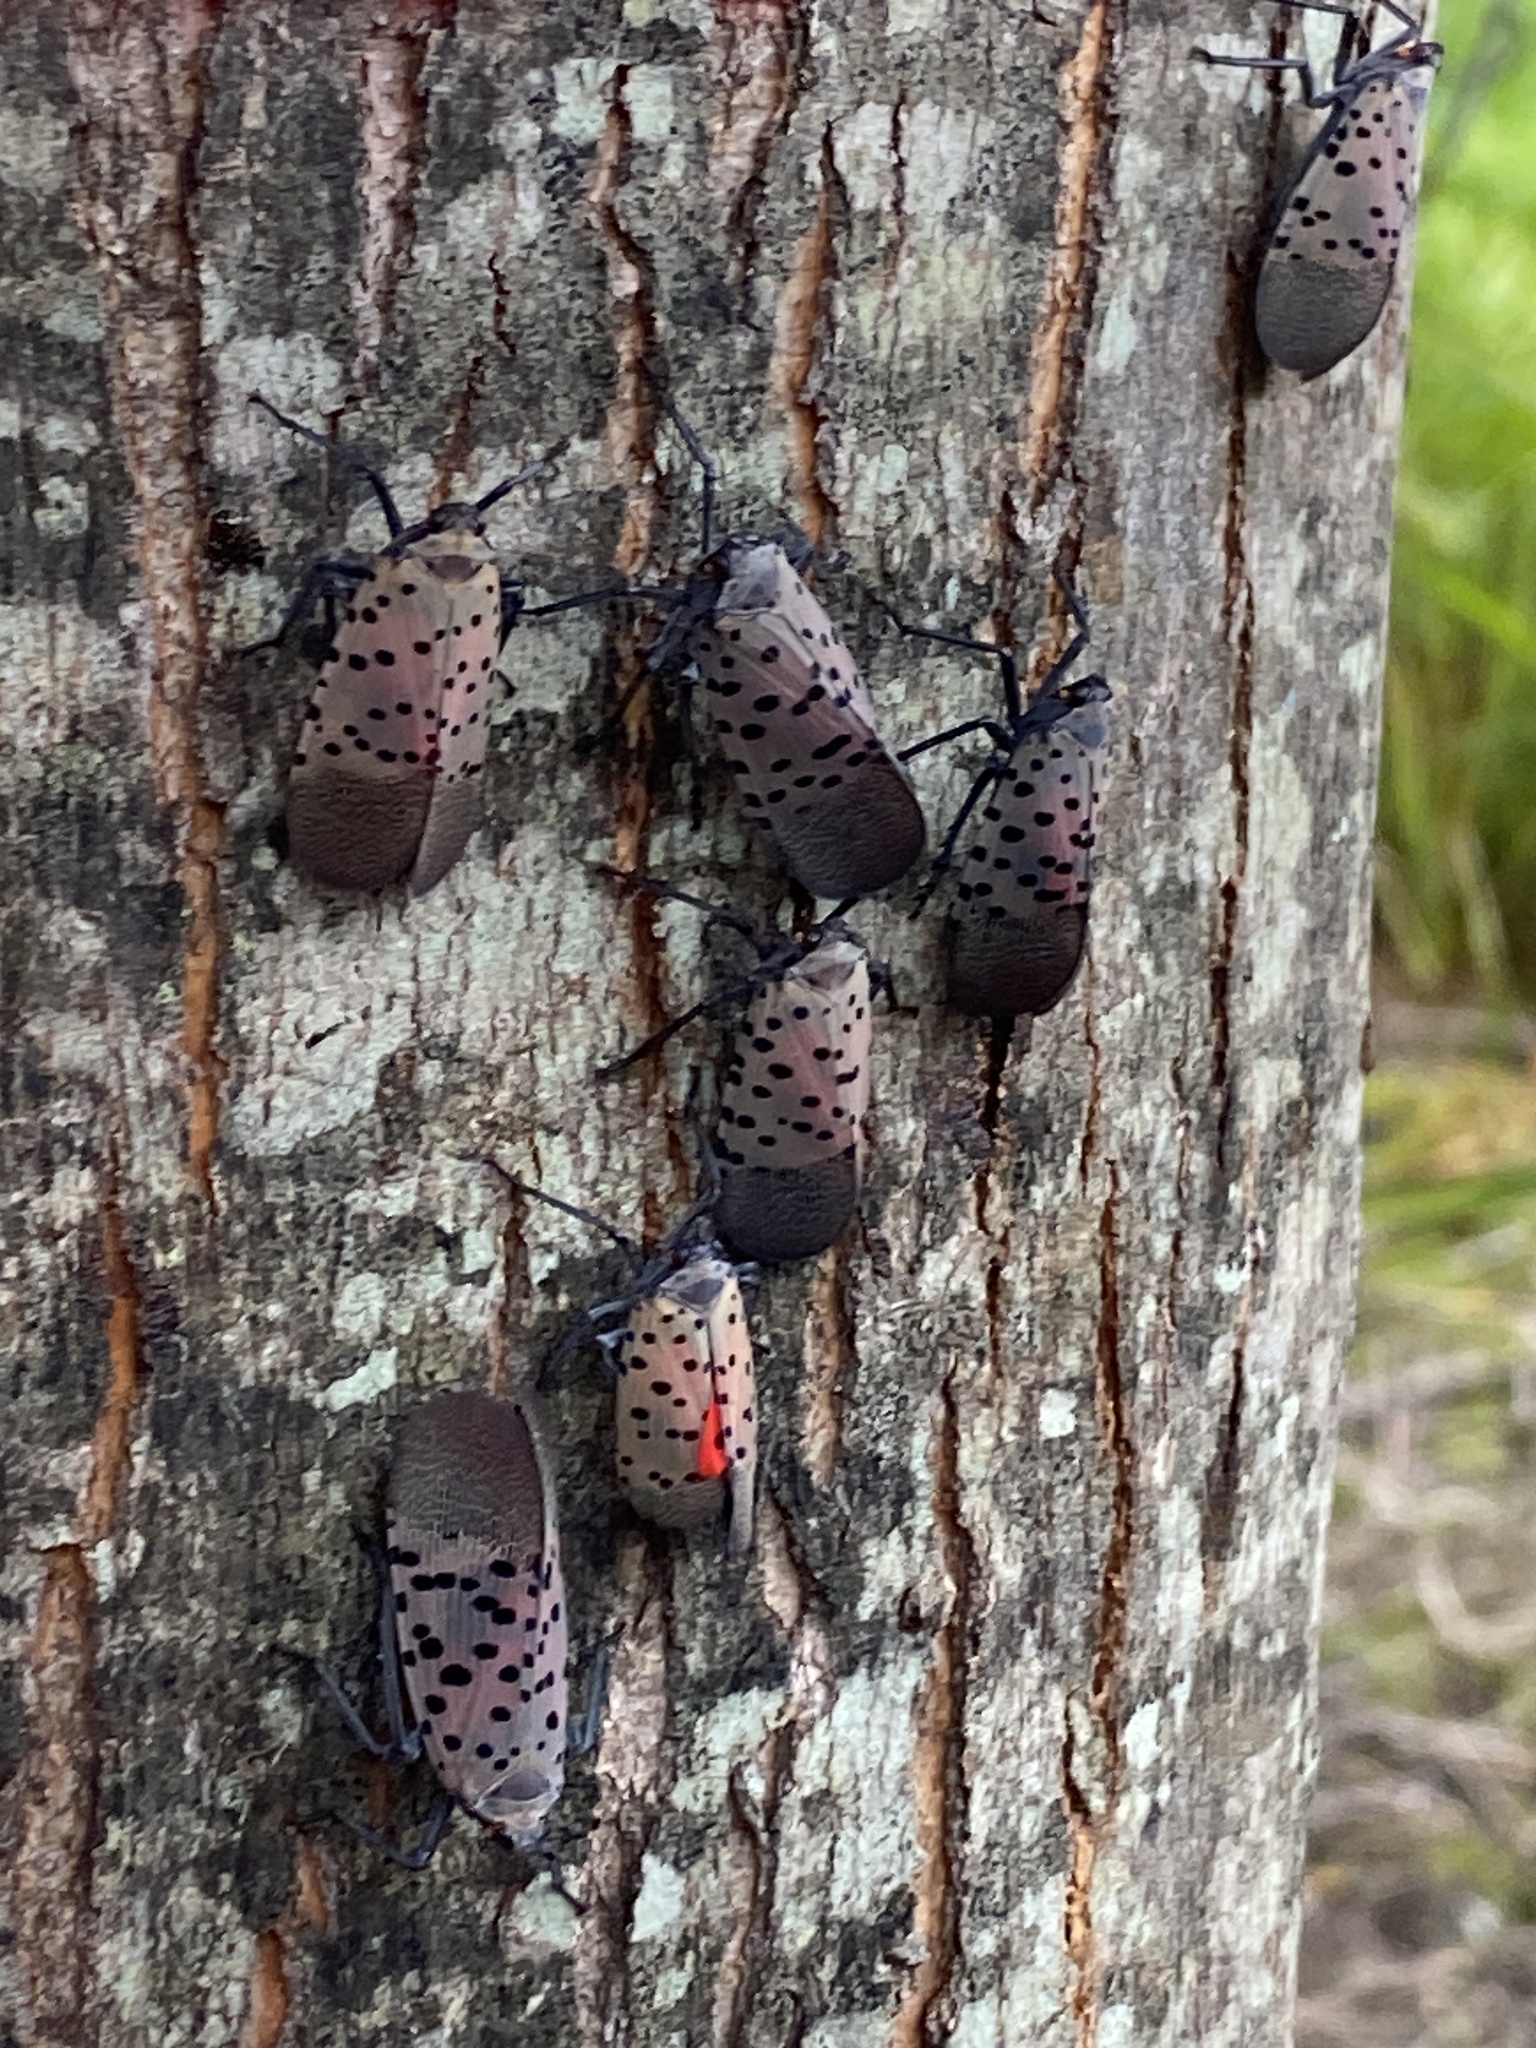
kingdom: Animalia
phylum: Arthropoda
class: Insecta
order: Hemiptera
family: Fulgoridae
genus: Lycorma
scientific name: Lycorma delicatula
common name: Spotted lanternfly
